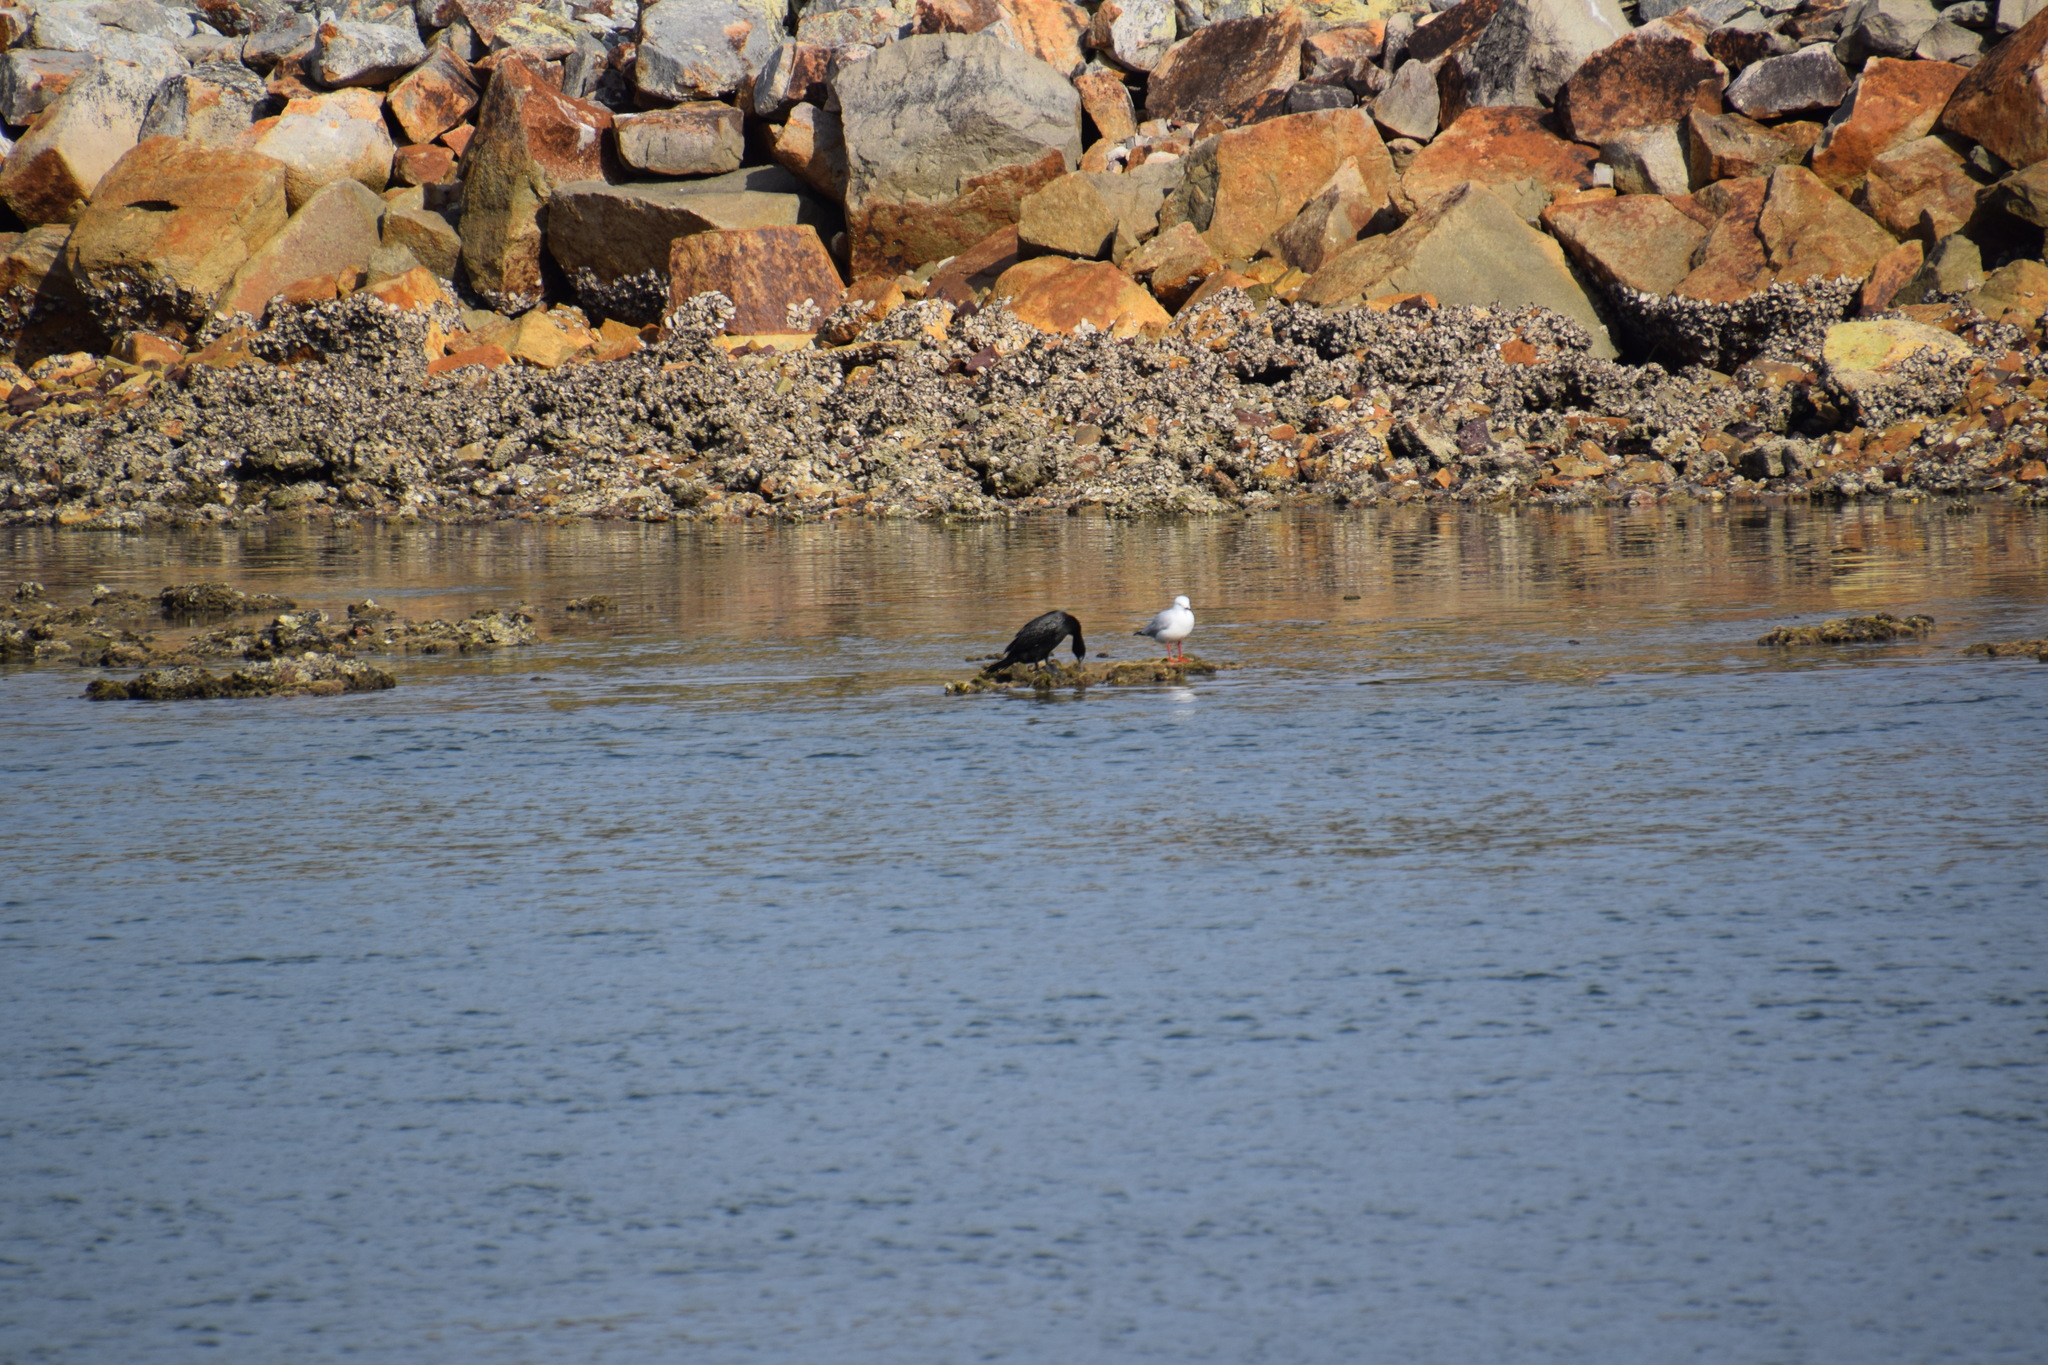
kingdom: Animalia
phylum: Chordata
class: Aves
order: Charadriiformes
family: Laridae
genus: Chroicocephalus
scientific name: Chroicocephalus novaehollandiae
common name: Silver gull
